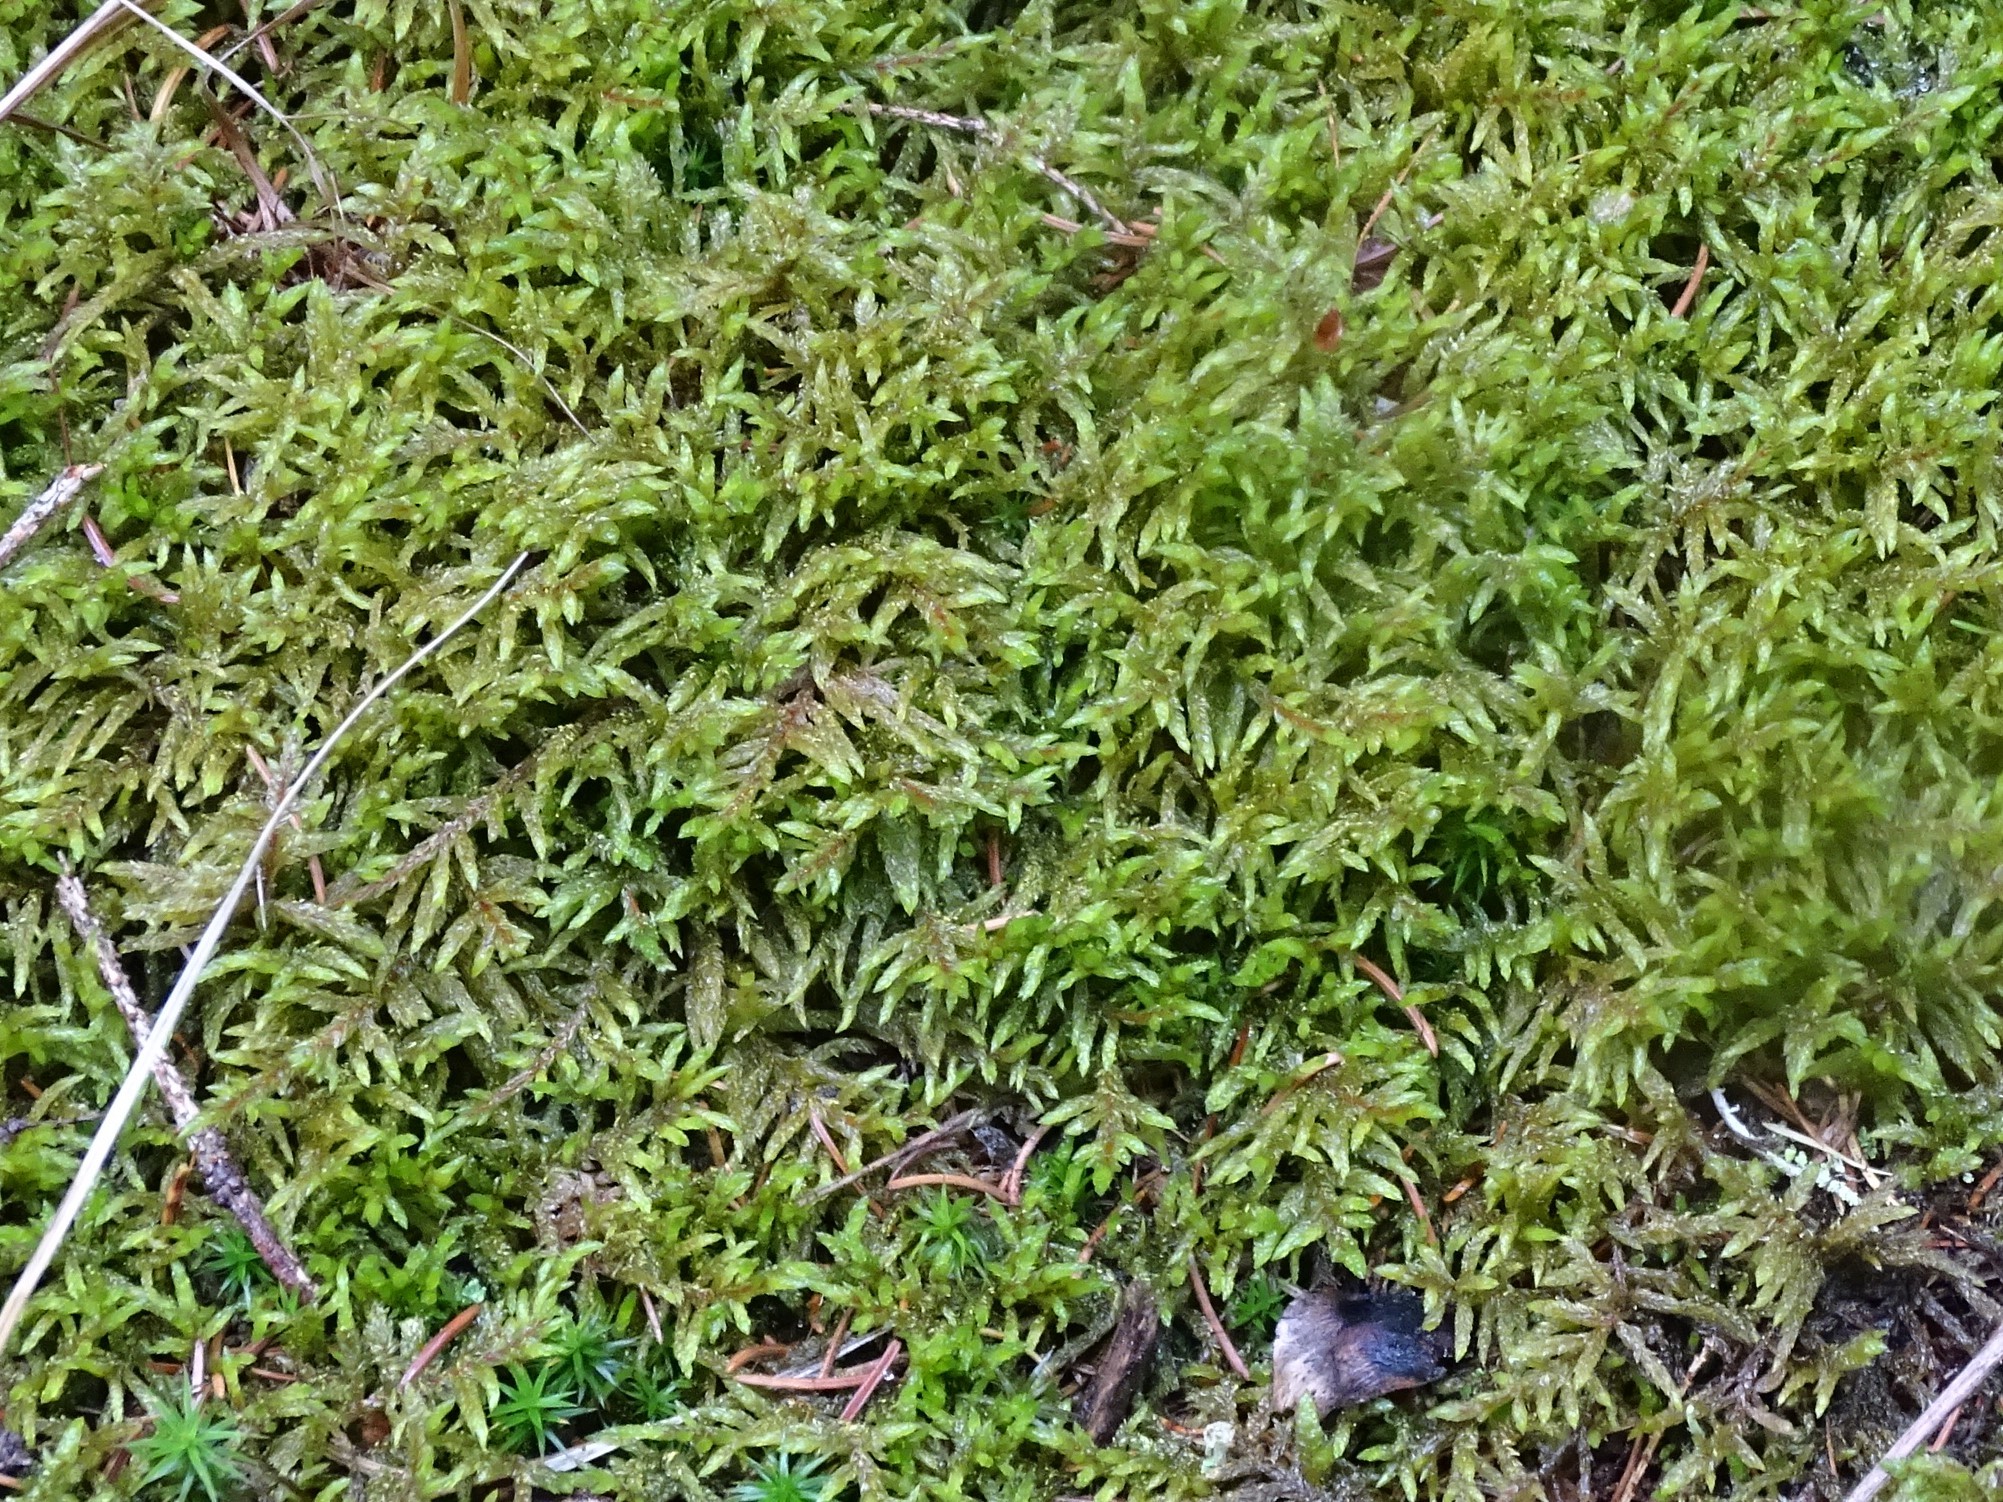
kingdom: Plantae
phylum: Bryophyta
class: Bryopsida
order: Hypnales
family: Hylocomiaceae
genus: Pleurozium
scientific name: Pleurozium schreberi
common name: Red-stemmed feather moss
